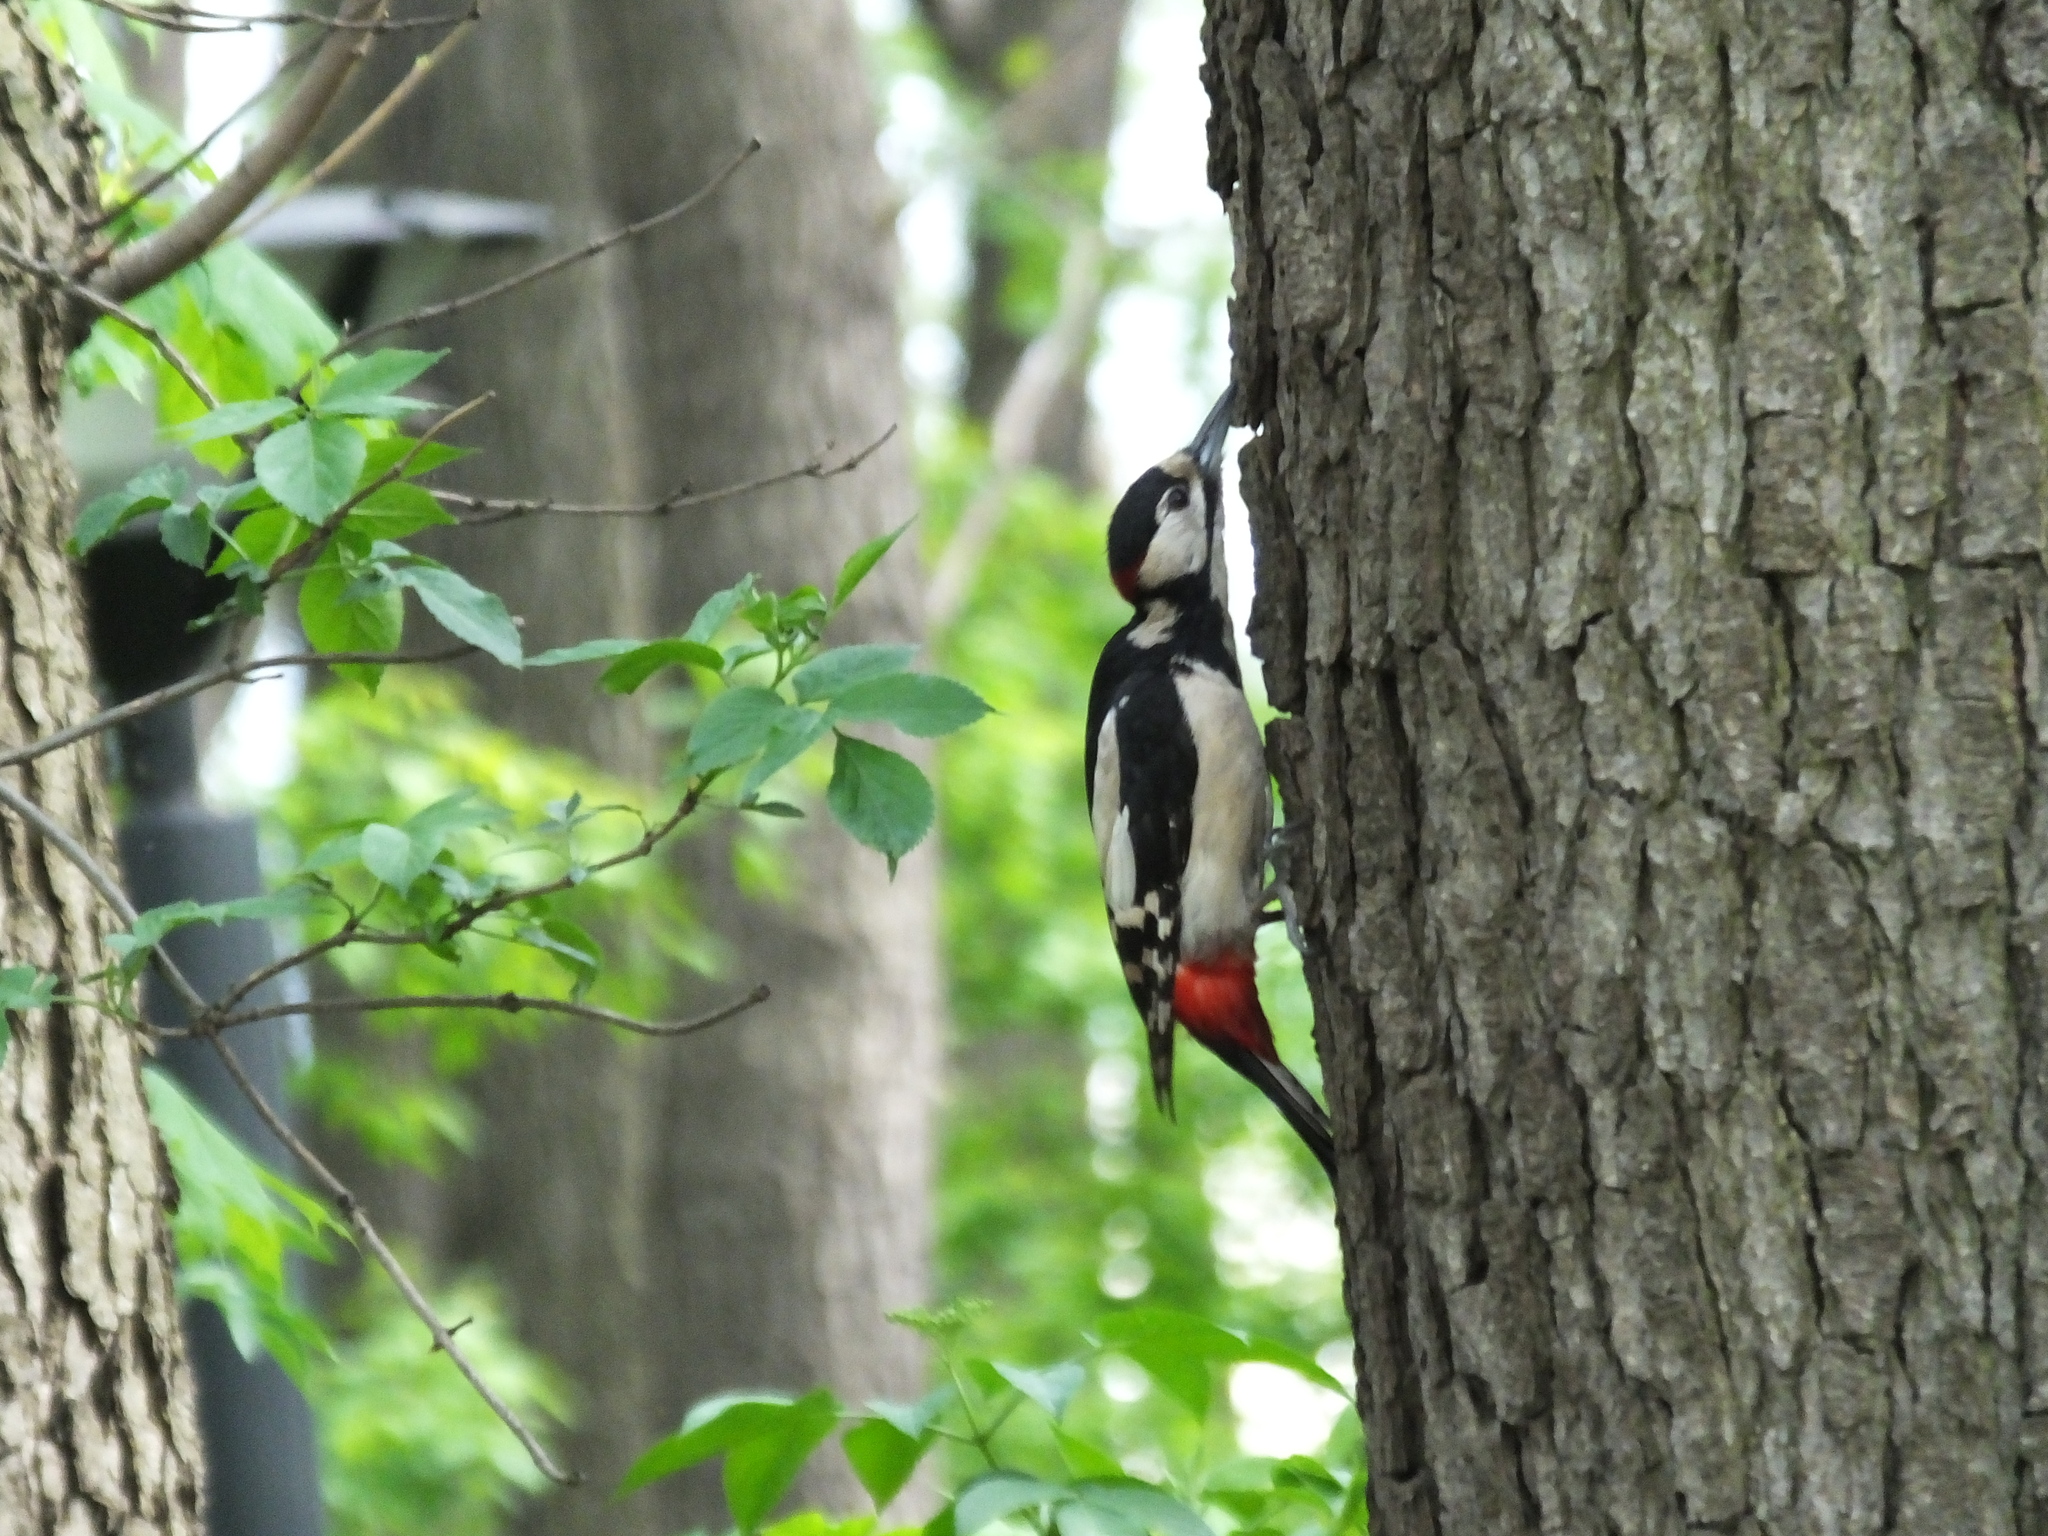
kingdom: Animalia
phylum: Chordata
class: Aves
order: Piciformes
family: Picidae
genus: Dendrocopos
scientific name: Dendrocopos major
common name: Great spotted woodpecker
